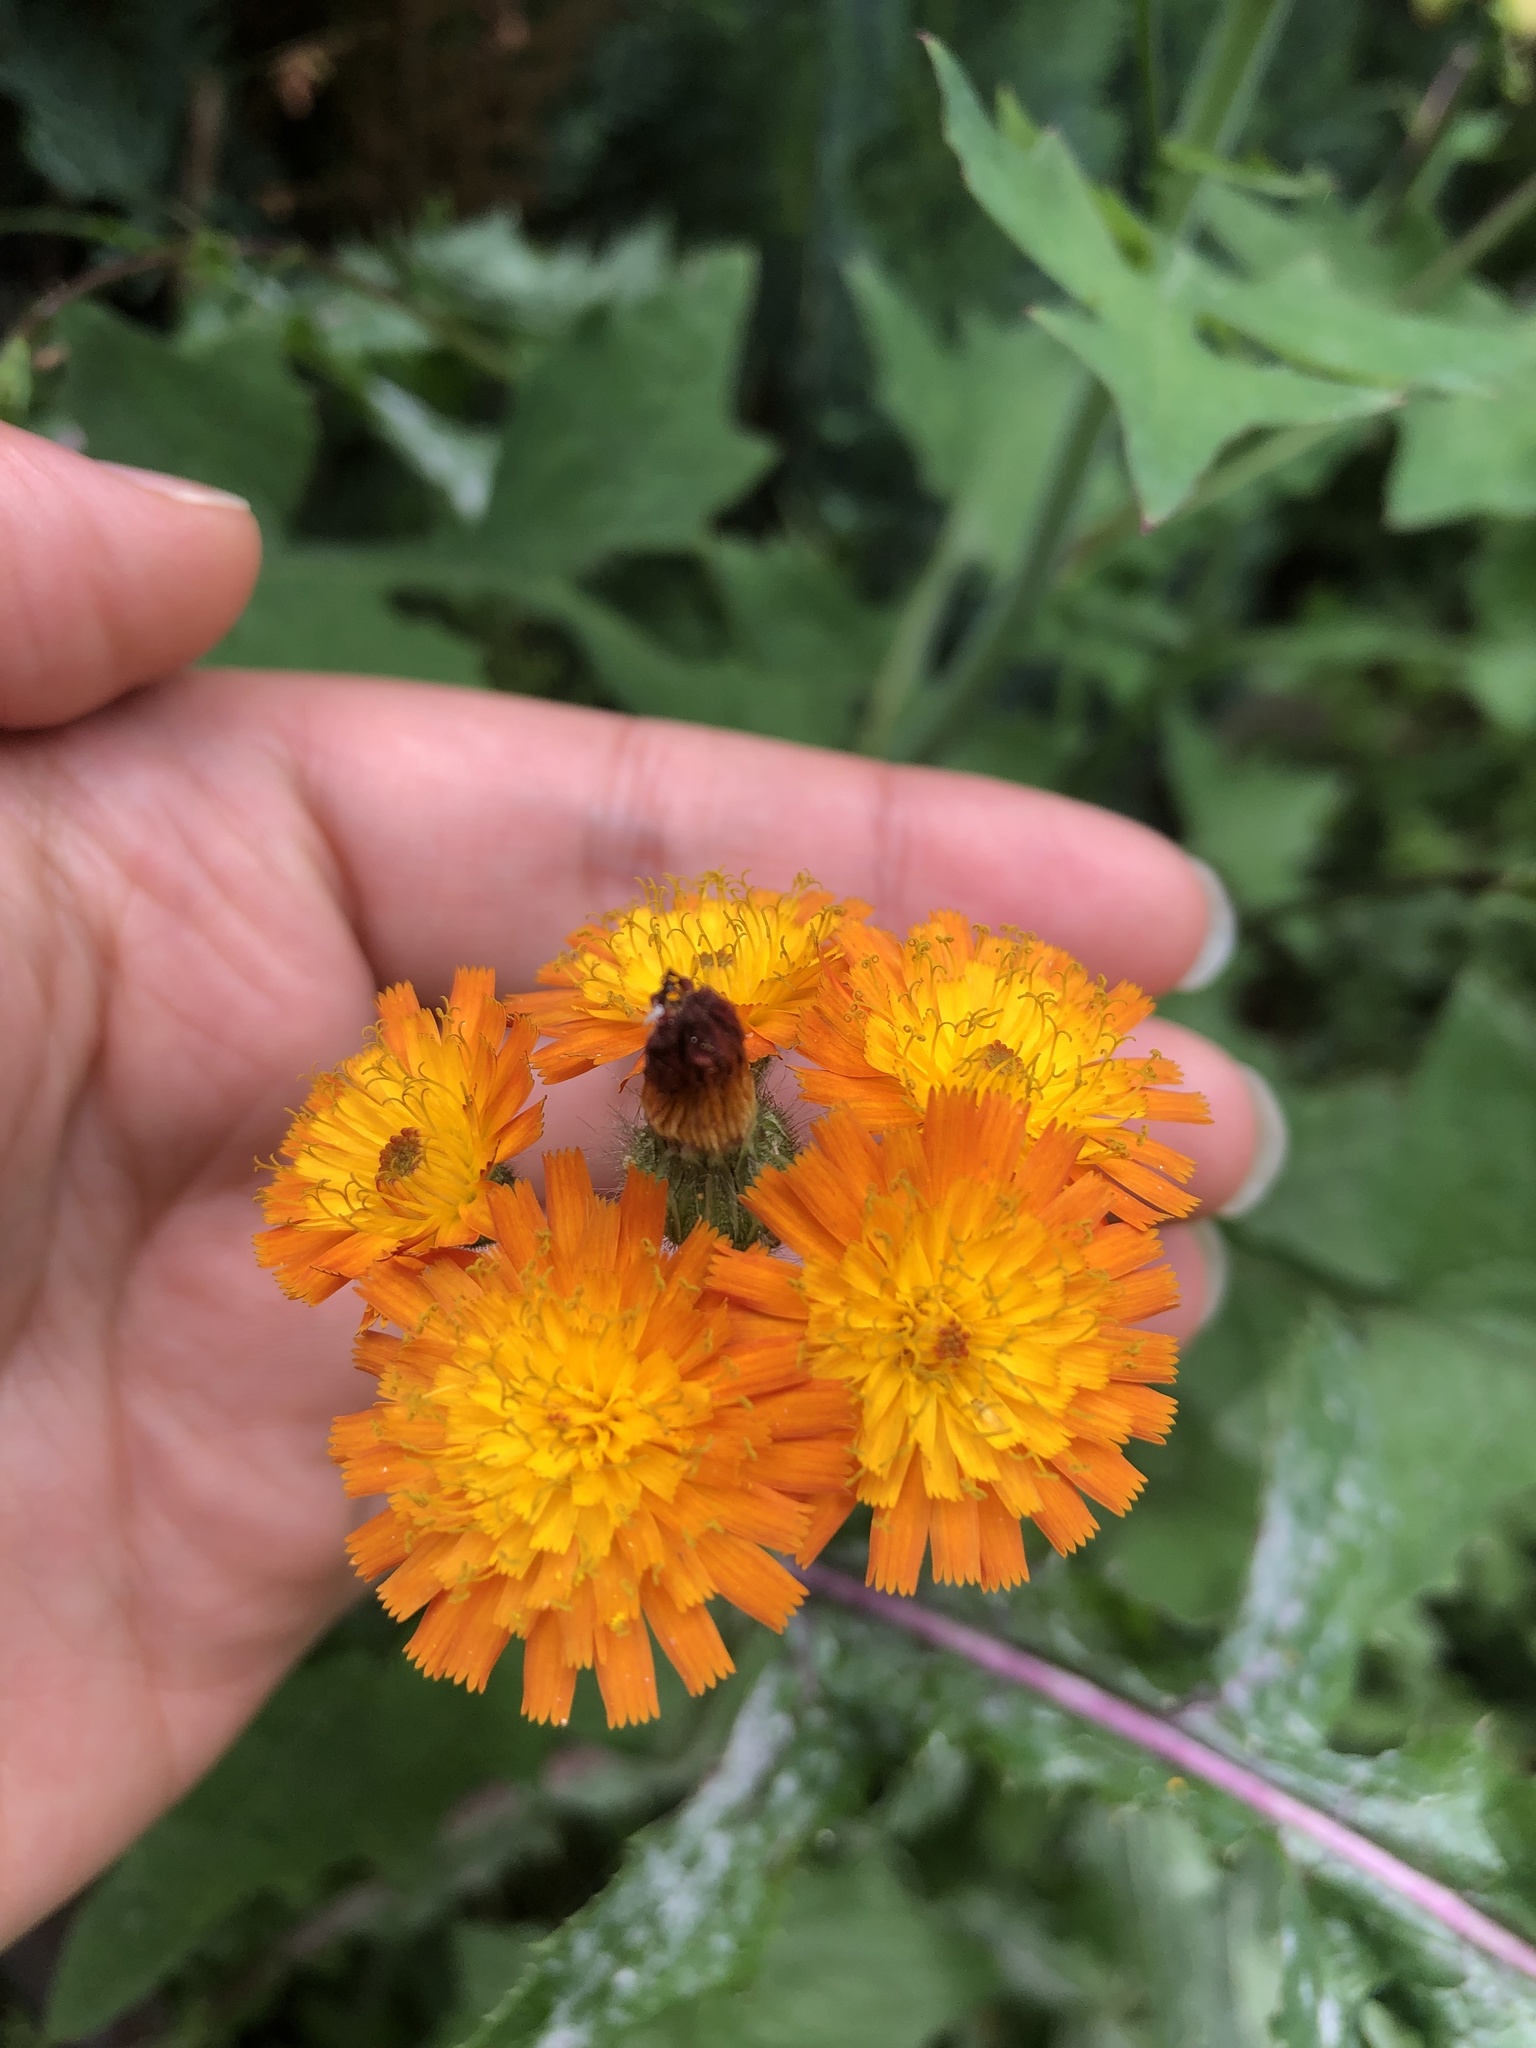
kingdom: Plantae
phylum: Tracheophyta
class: Magnoliopsida
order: Asterales
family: Asteraceae
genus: Pilosella
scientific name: Pilosella aurantiaca
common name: Fox-and-cubs
